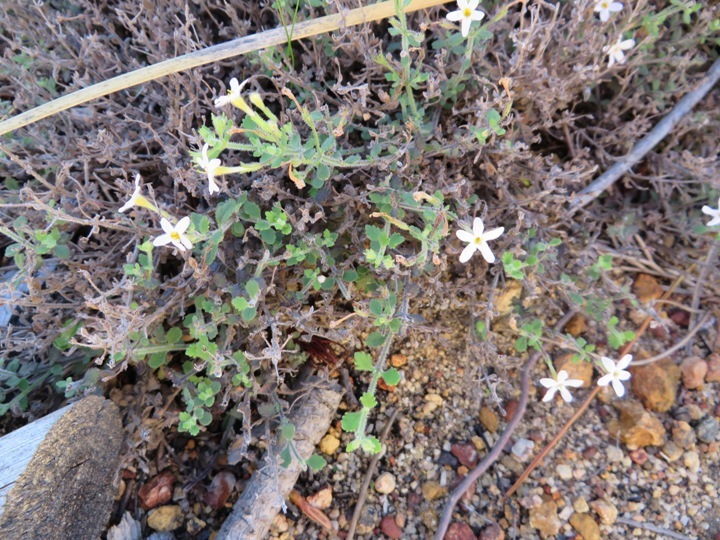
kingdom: Plantae
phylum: Tracheophyta
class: Magnoliopsida
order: Lamiales
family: Scrophulariaceae
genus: Chaenostoma
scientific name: Chaenostoma hispidum
